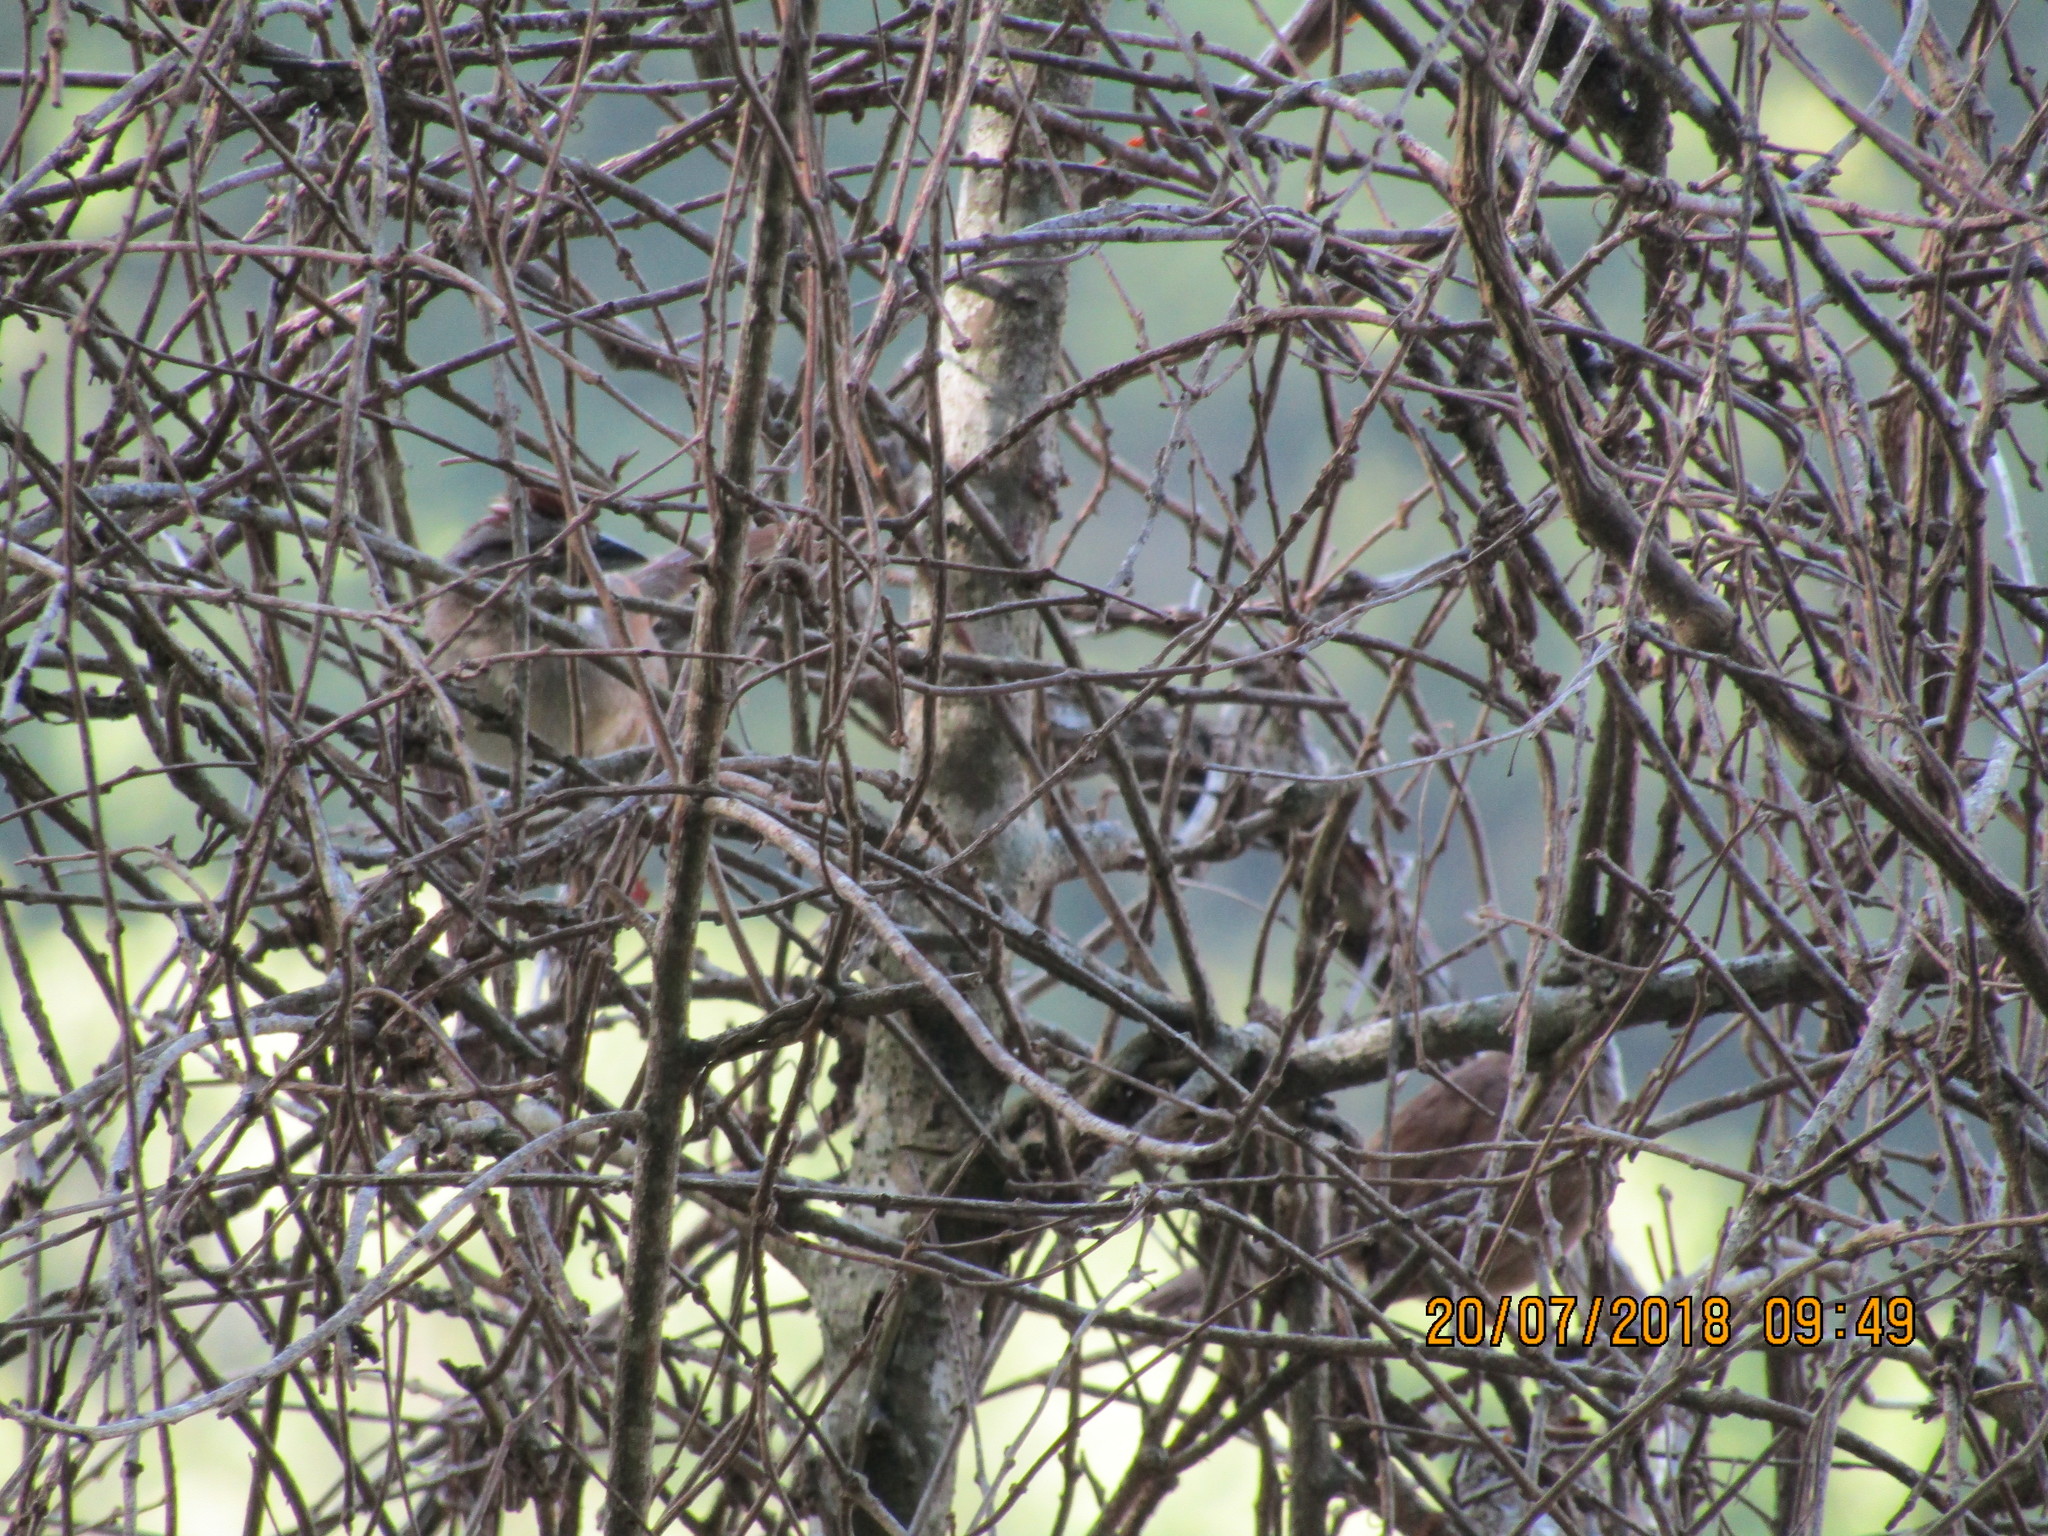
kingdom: Animalia
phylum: Chordata
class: Aves
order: Passeriformes
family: Passerellidae
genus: Aimophila
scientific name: Aimophila rufescens
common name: Rusty sparrow
